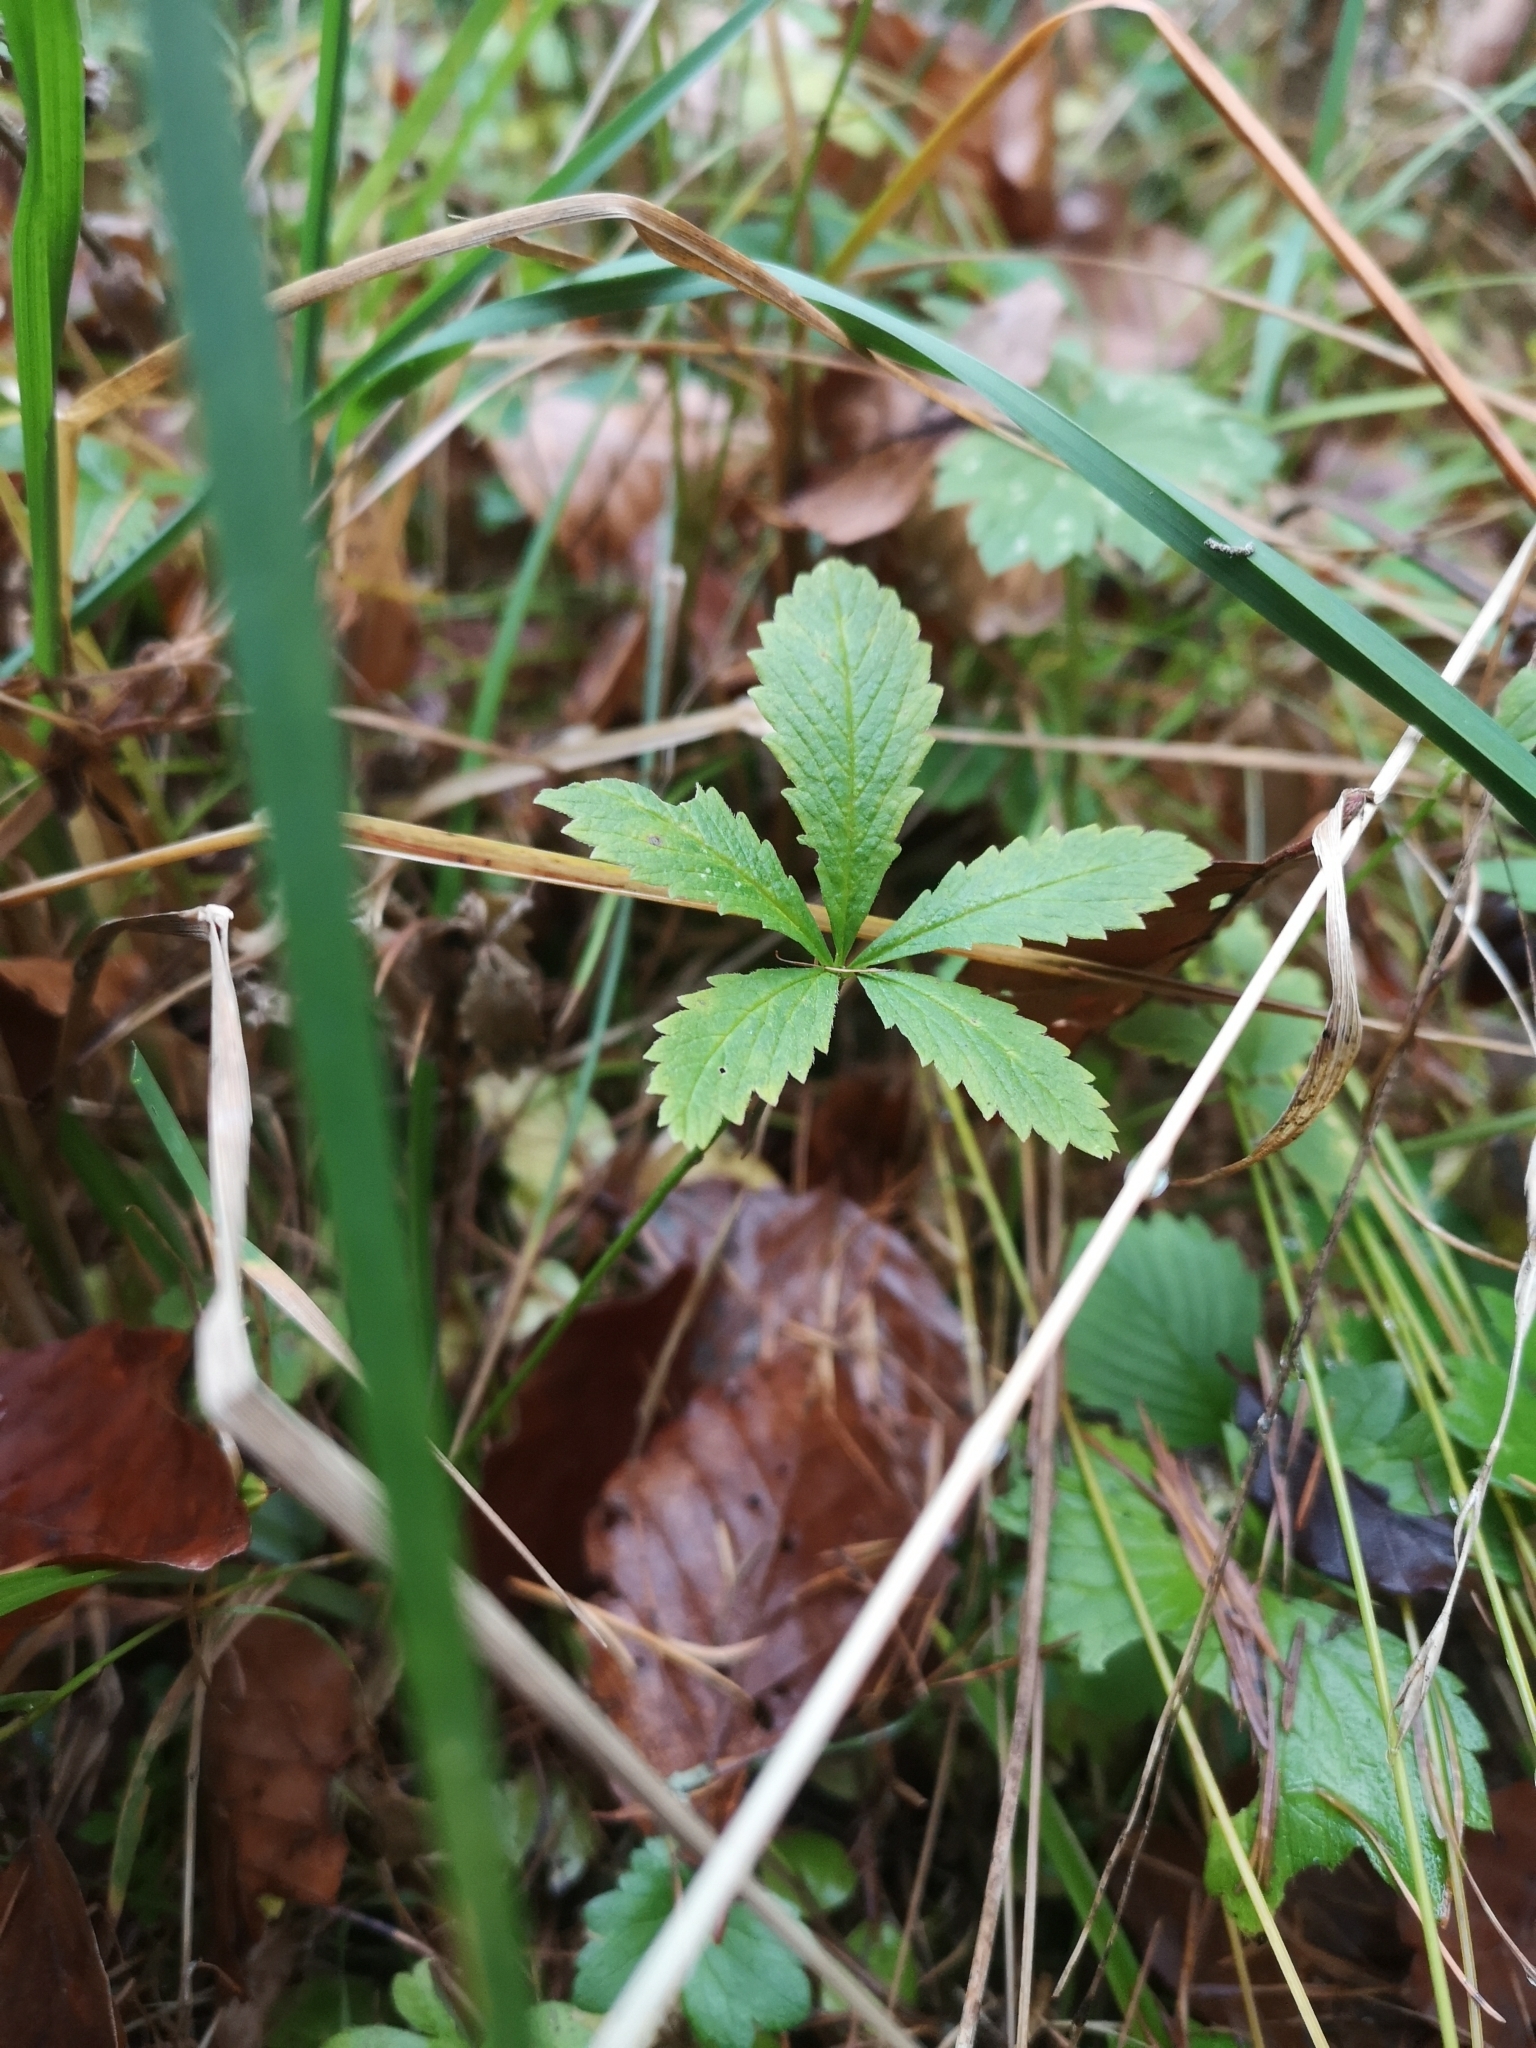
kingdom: Plantae
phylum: Tracheophyta
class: Magnoliopsida
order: Rosales
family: Rosaceae
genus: Potentilla
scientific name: Potentilla reptans
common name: Creeping cinquefoil
